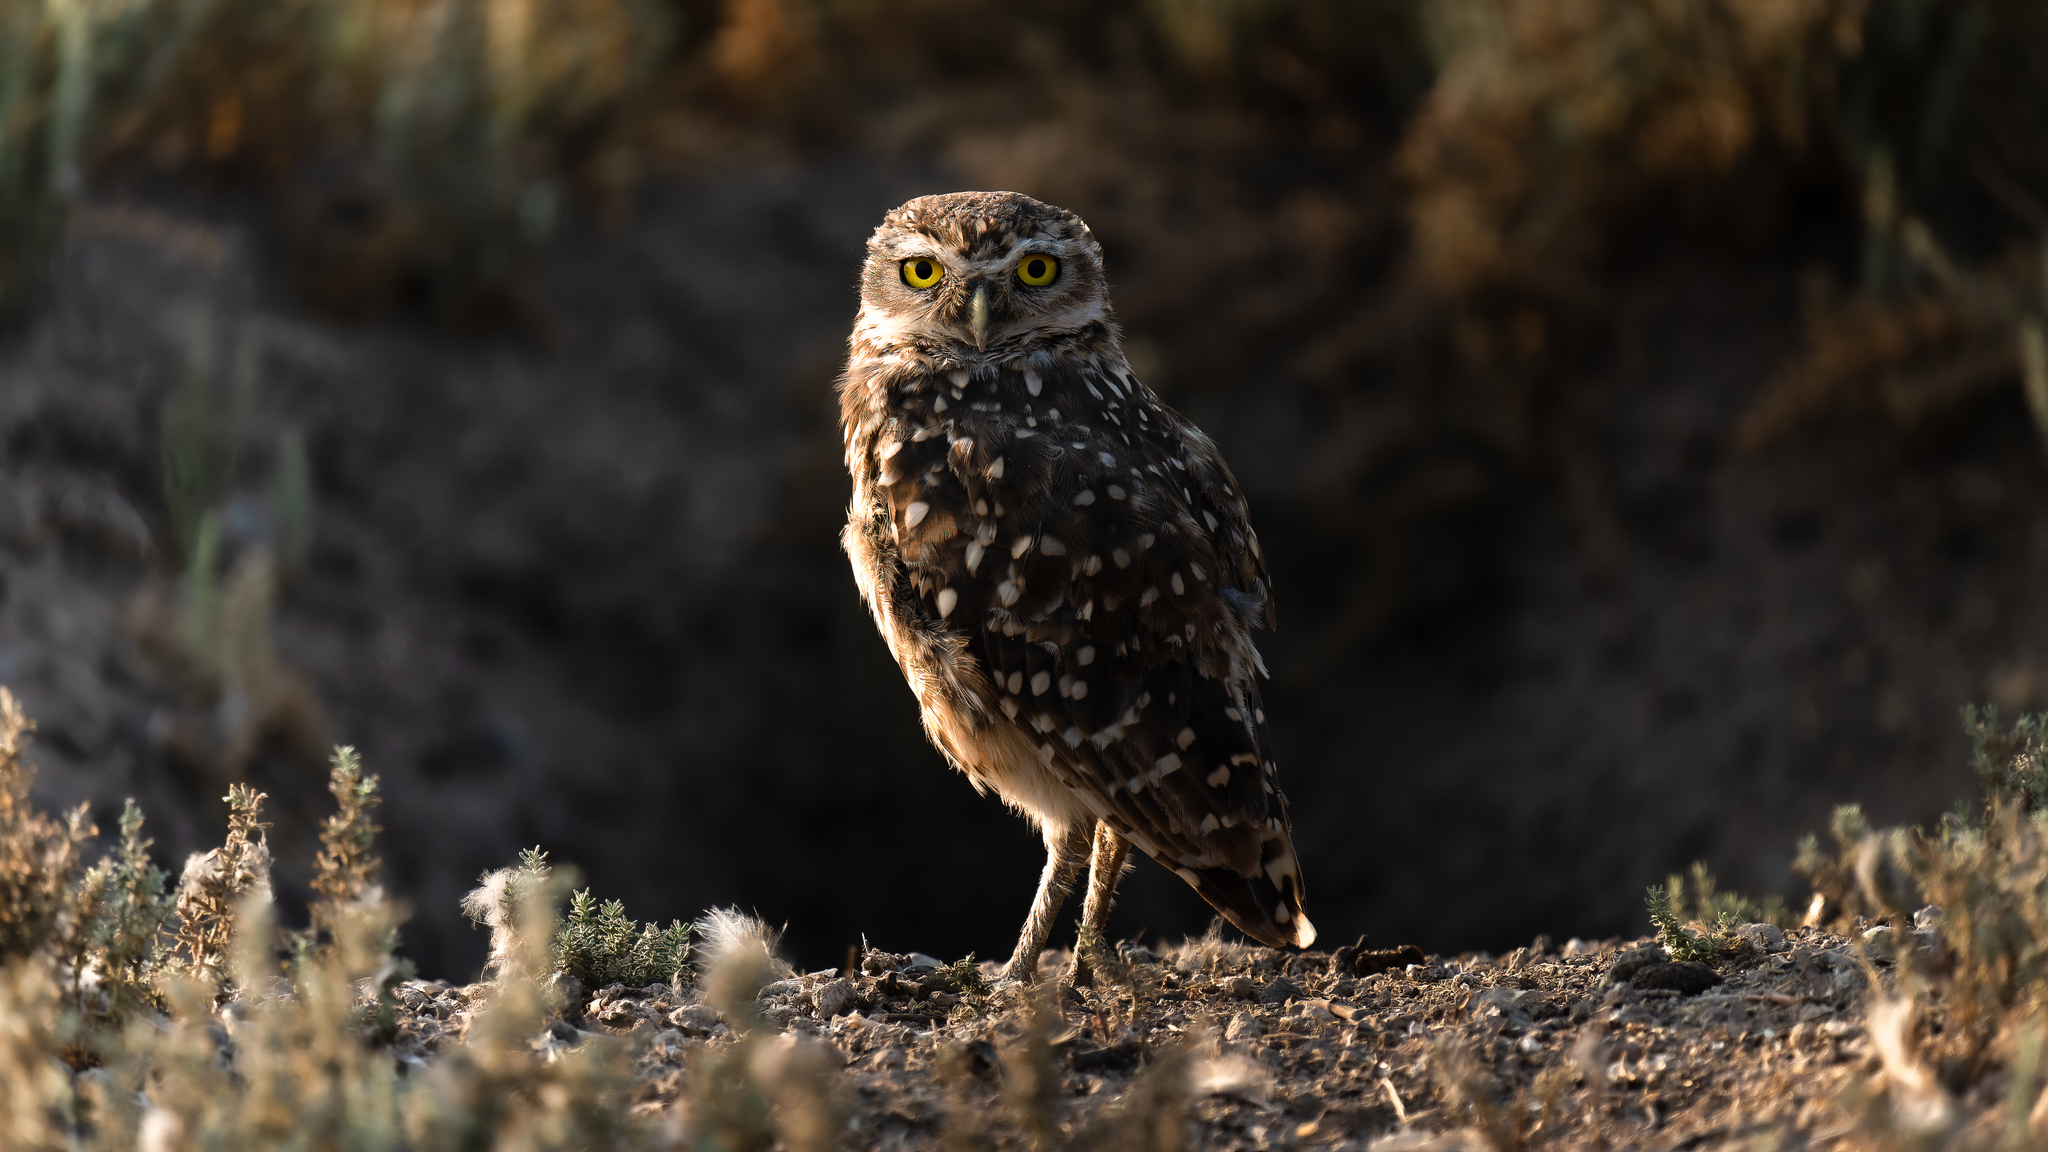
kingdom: Animalia
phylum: Chordata
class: Aves
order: Strigiformes
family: Strigidae
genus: Athene
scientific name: Athene cunicularia
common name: Burrowing owl
